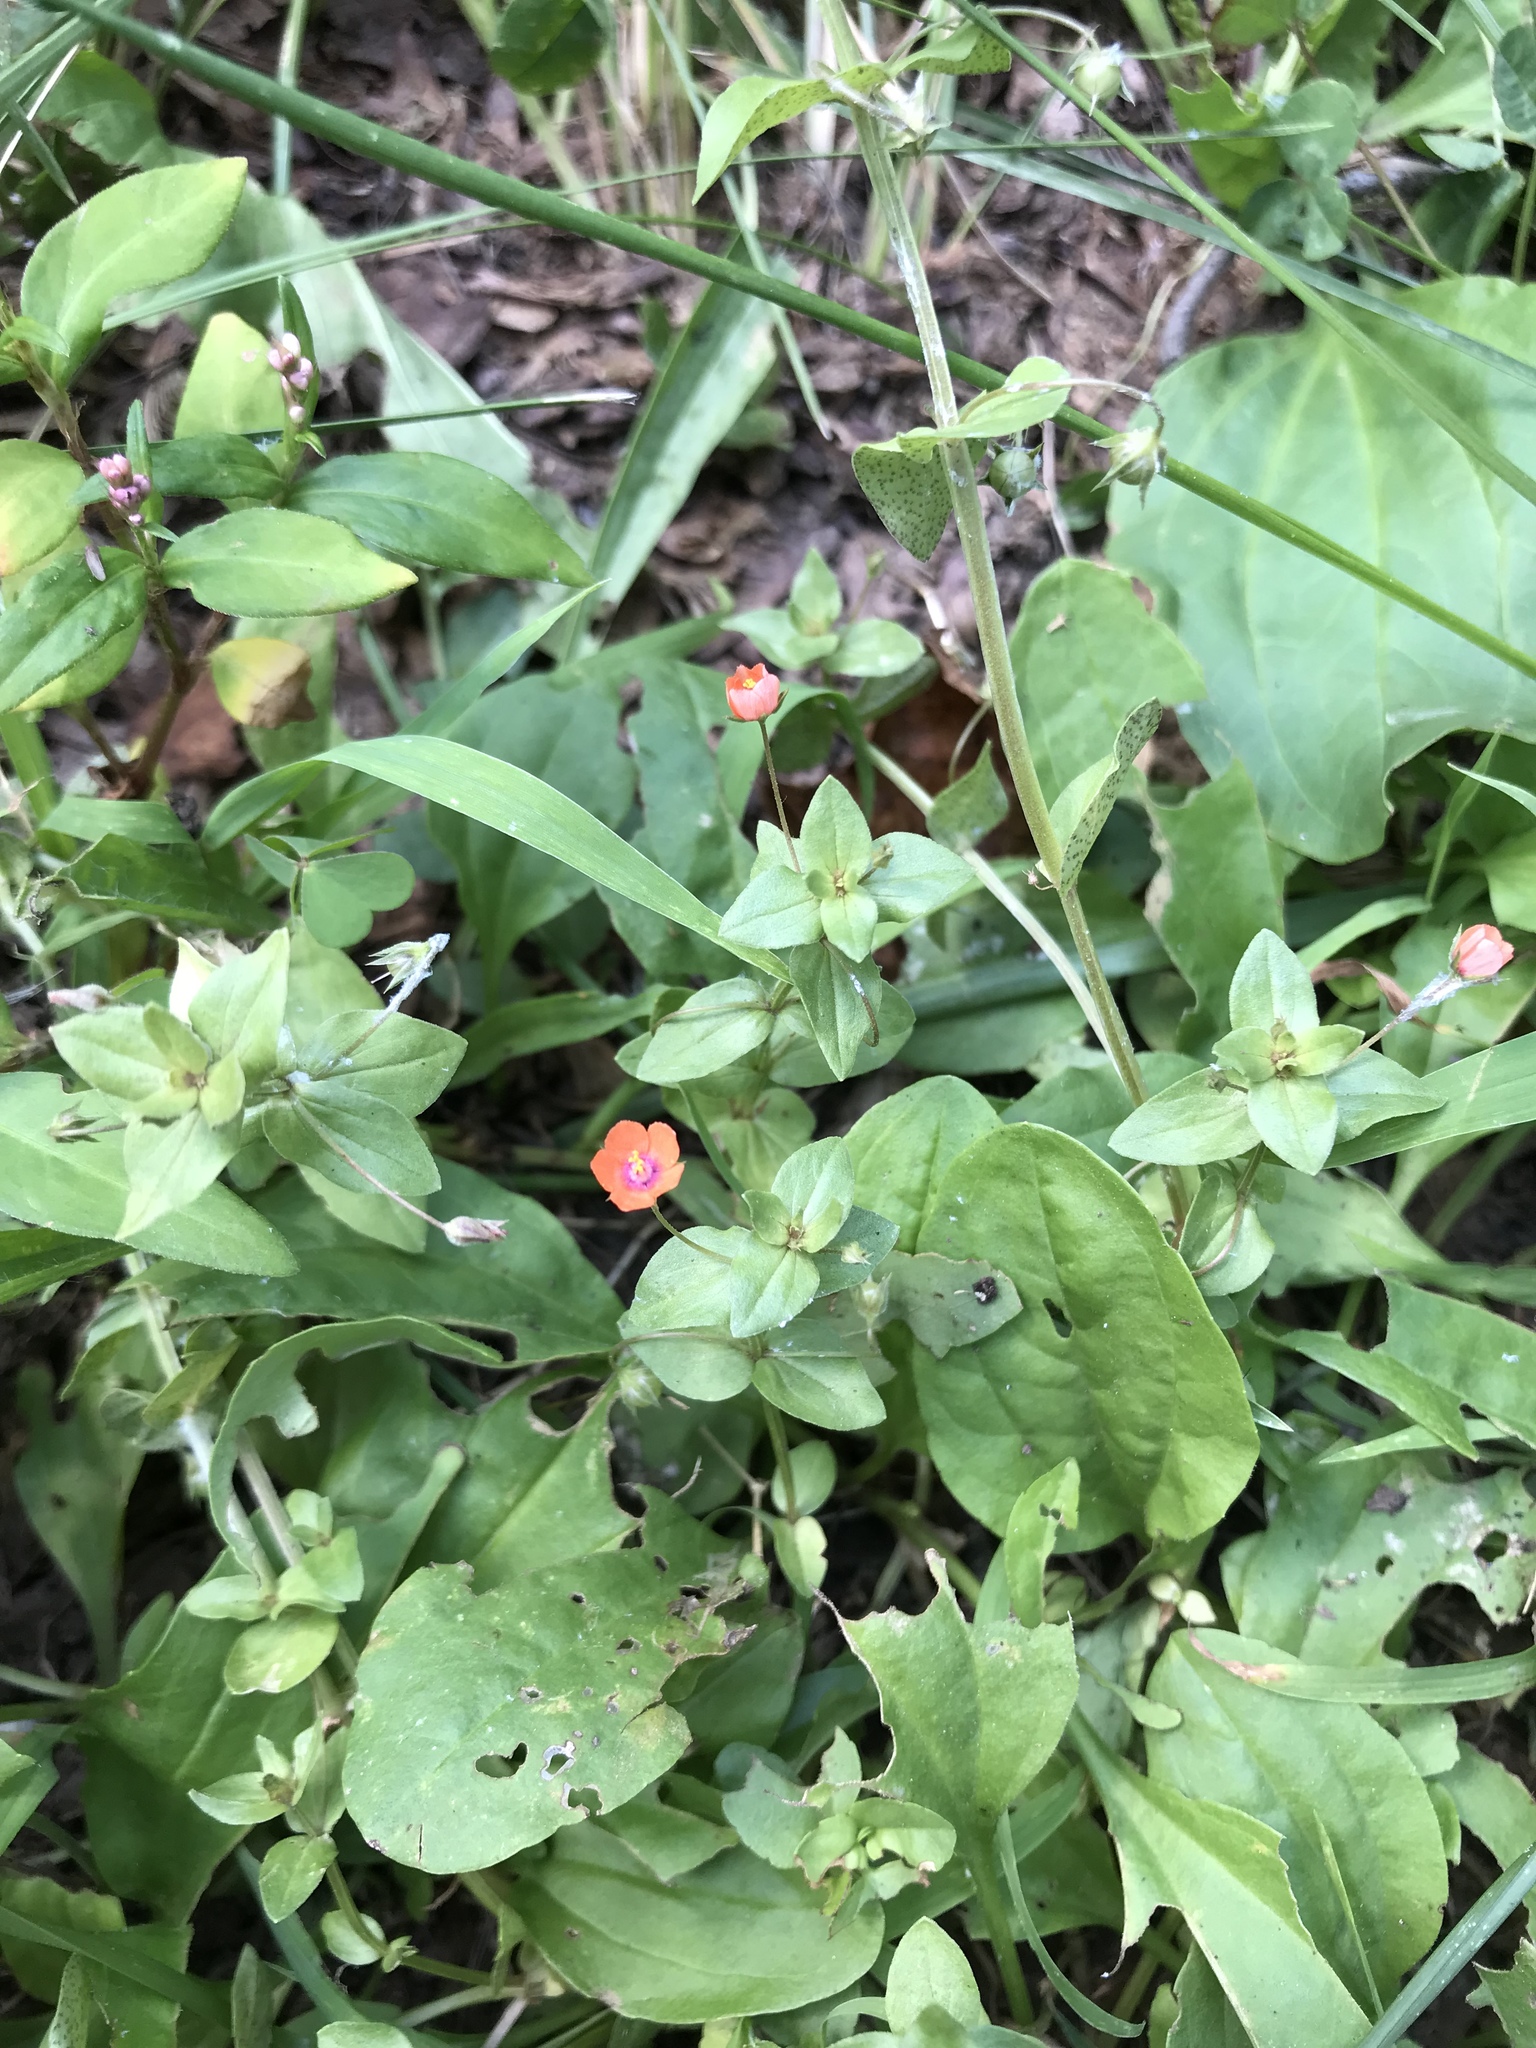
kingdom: Plantae
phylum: Tracheophyta
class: Magnoliopsida
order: Ericales
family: Primulaceae
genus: Lysimachia
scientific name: Lysimachia arvensis
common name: Scarlet pimpernel
